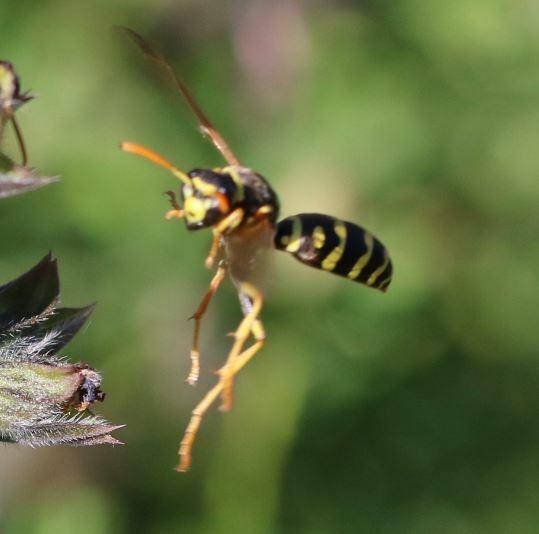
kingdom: Animalia
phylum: Arthropoda
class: Insecta
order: Hymenoptera
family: Eumenidae
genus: Polistes
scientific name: Polistes gallicus
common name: Paper wasp
